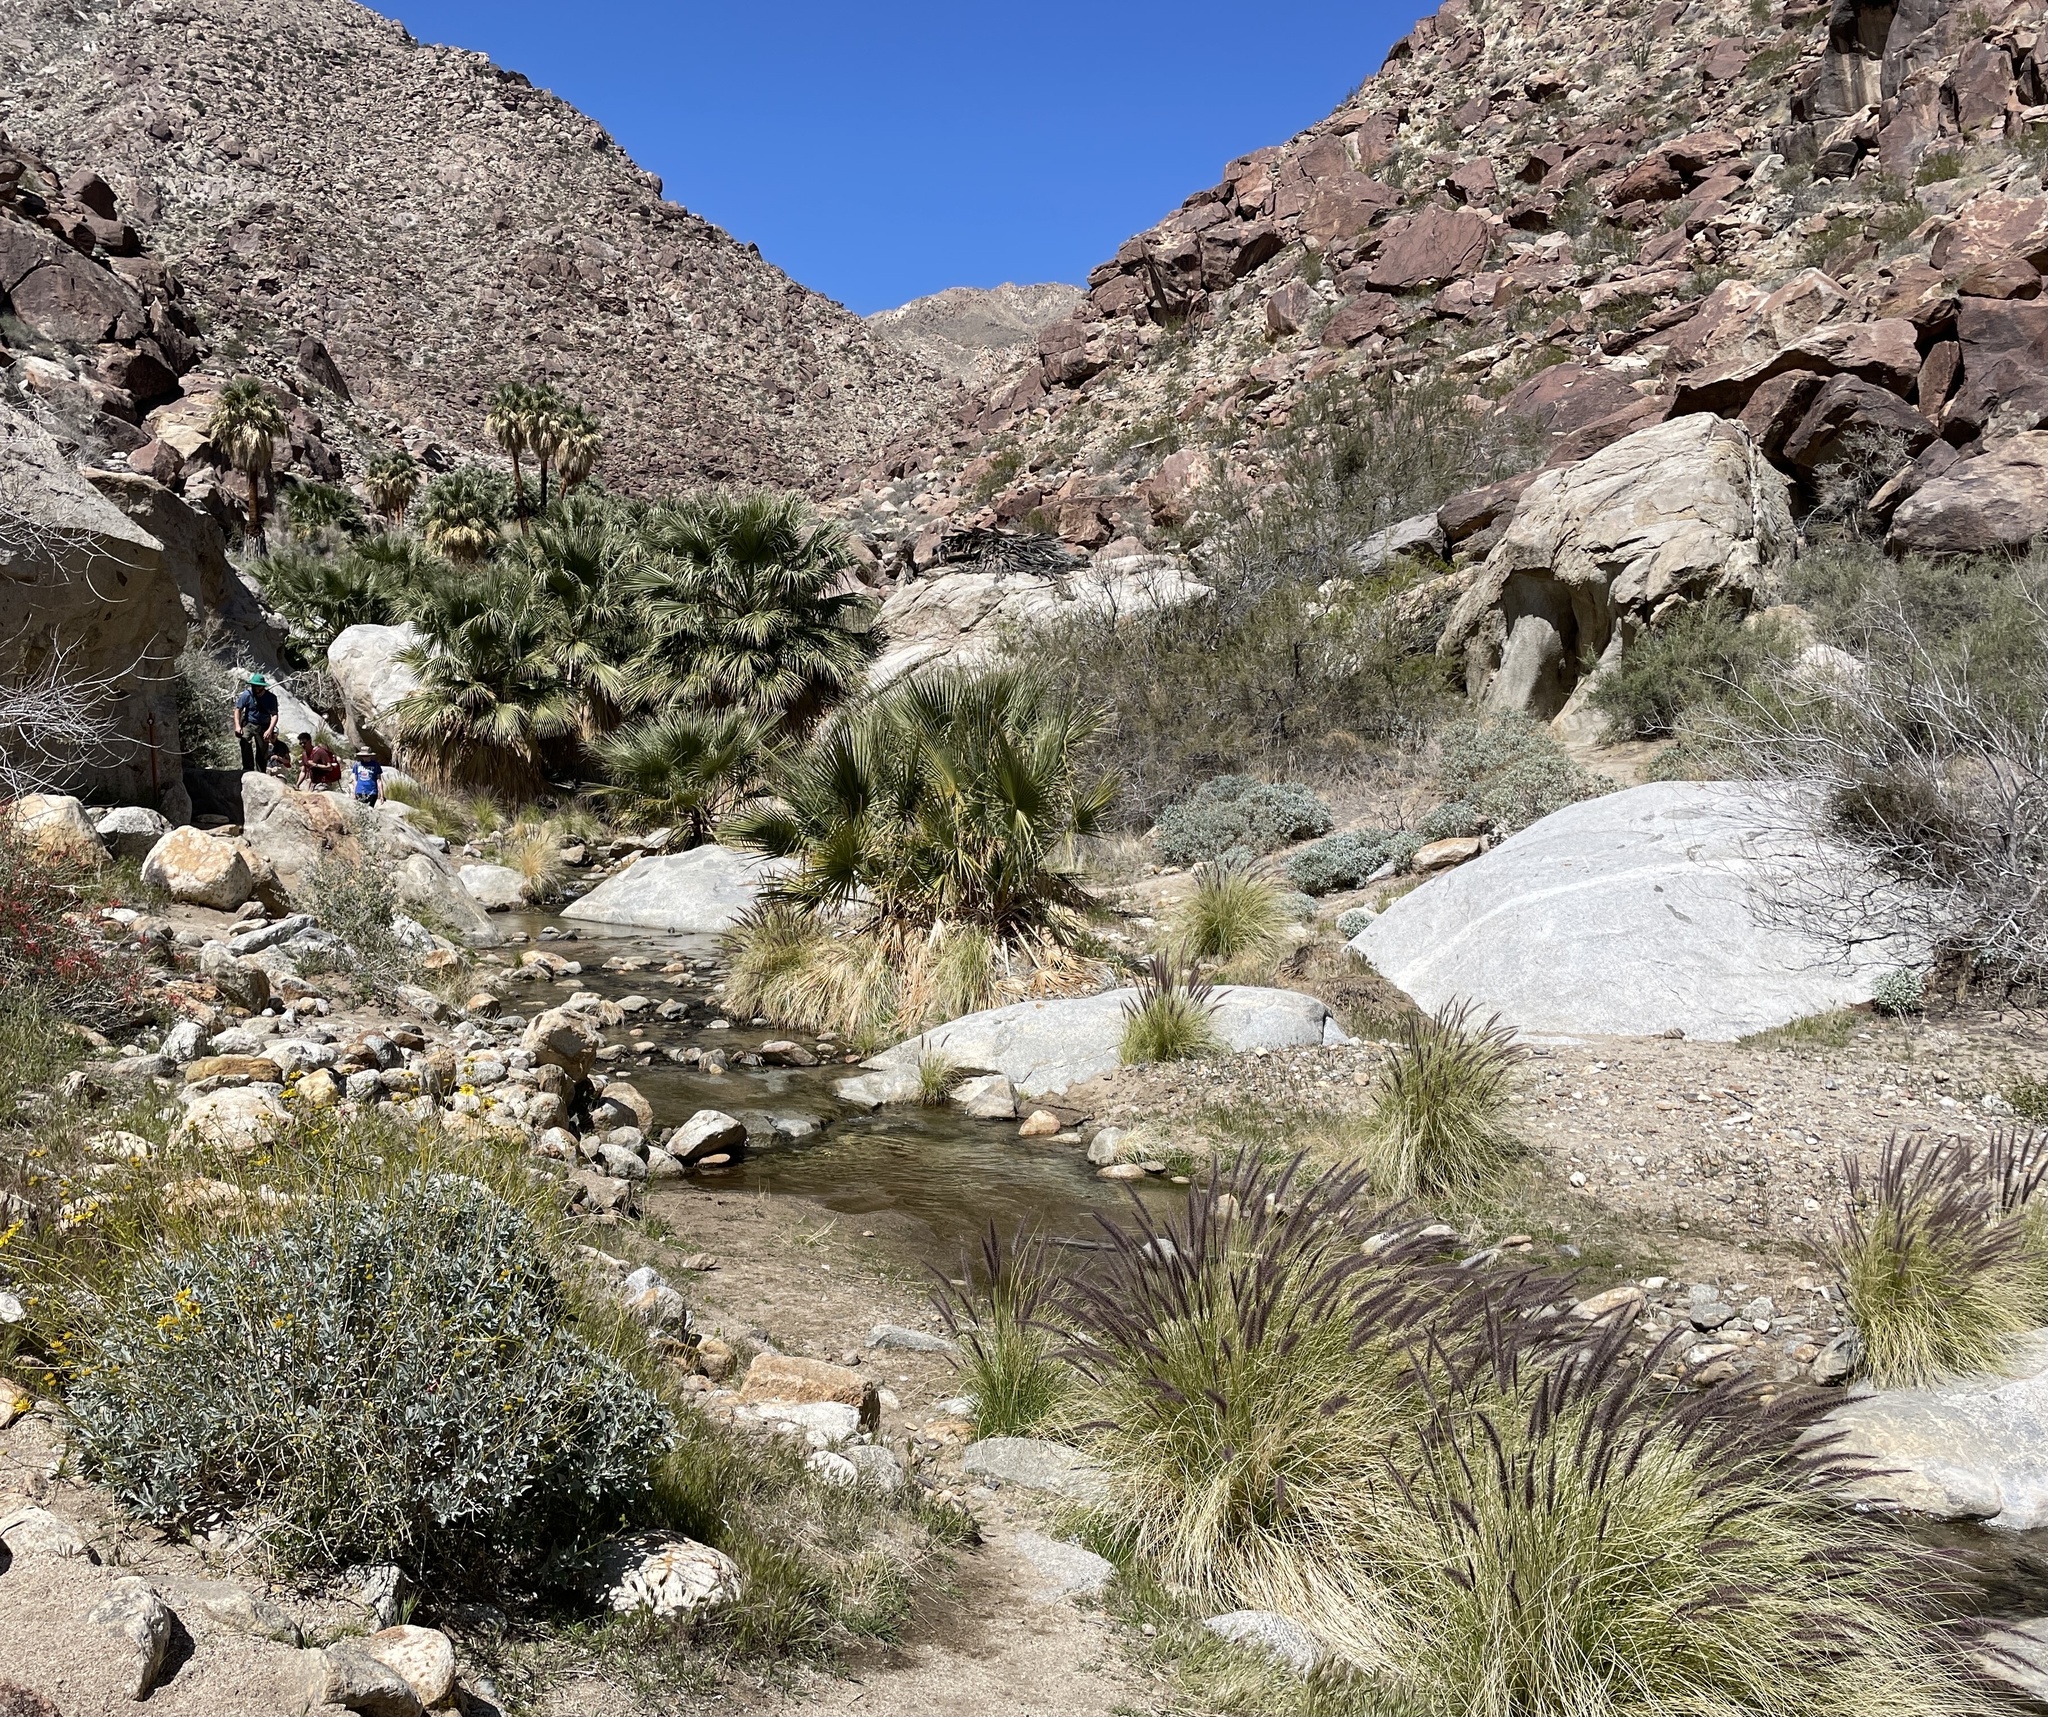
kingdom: Plantae
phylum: Tracheophyta
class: Liliopsida
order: Arecales
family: Arecaceae
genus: Washingtonia
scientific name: Washingtonia filifera
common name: California fan palm
